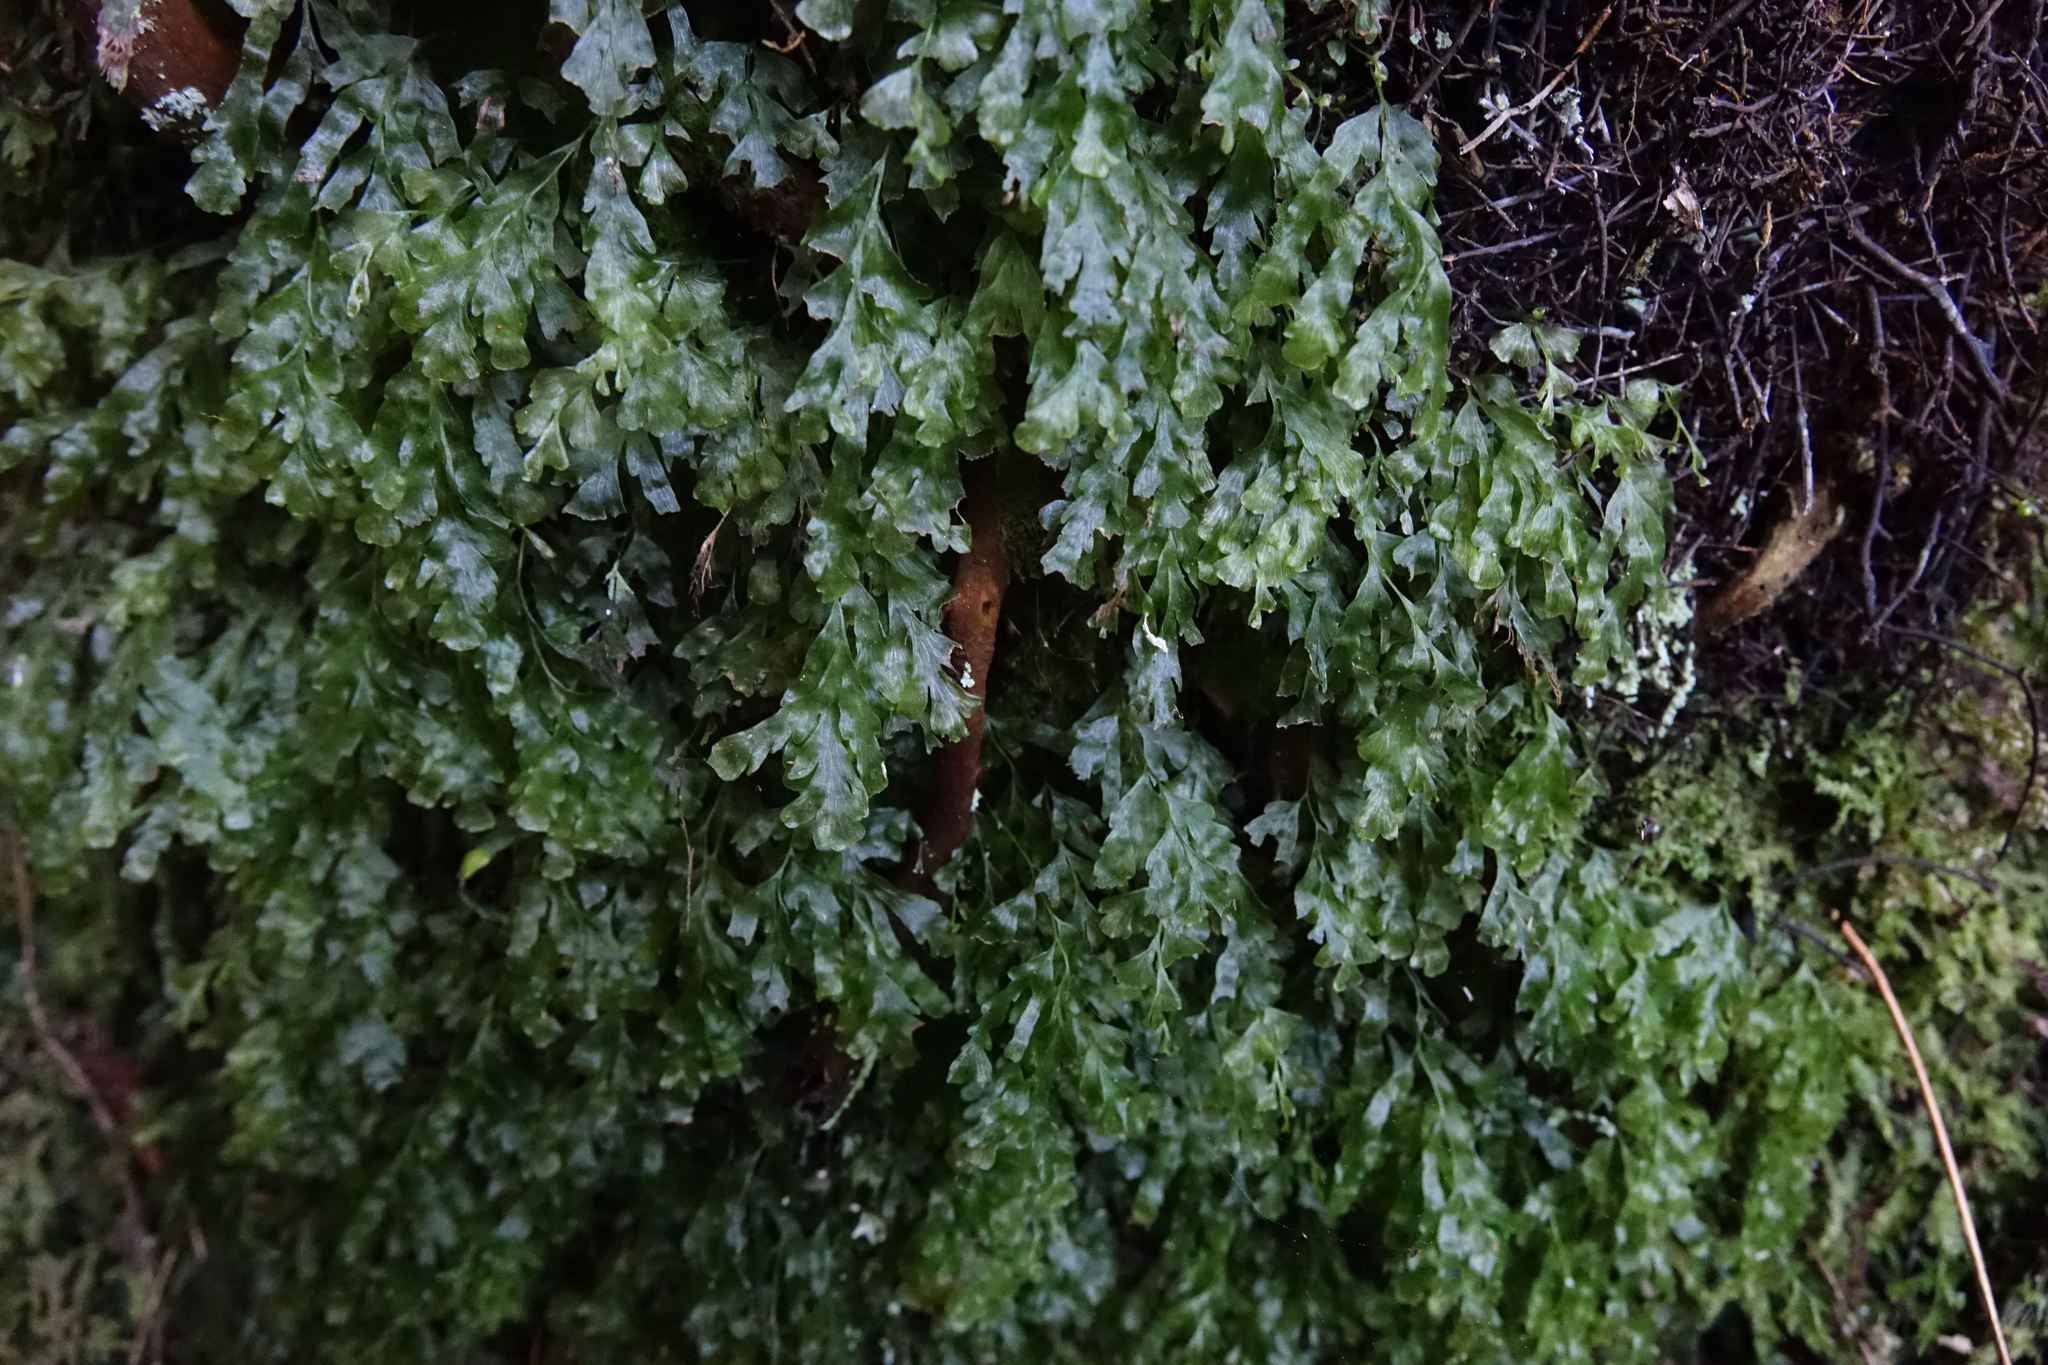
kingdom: Plantae
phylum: Tracheophyta
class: Polypodiopsida
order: Hymenophyllales
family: Hymenophyllaceae
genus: Polyphlebium
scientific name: Polyphlebium venosum
